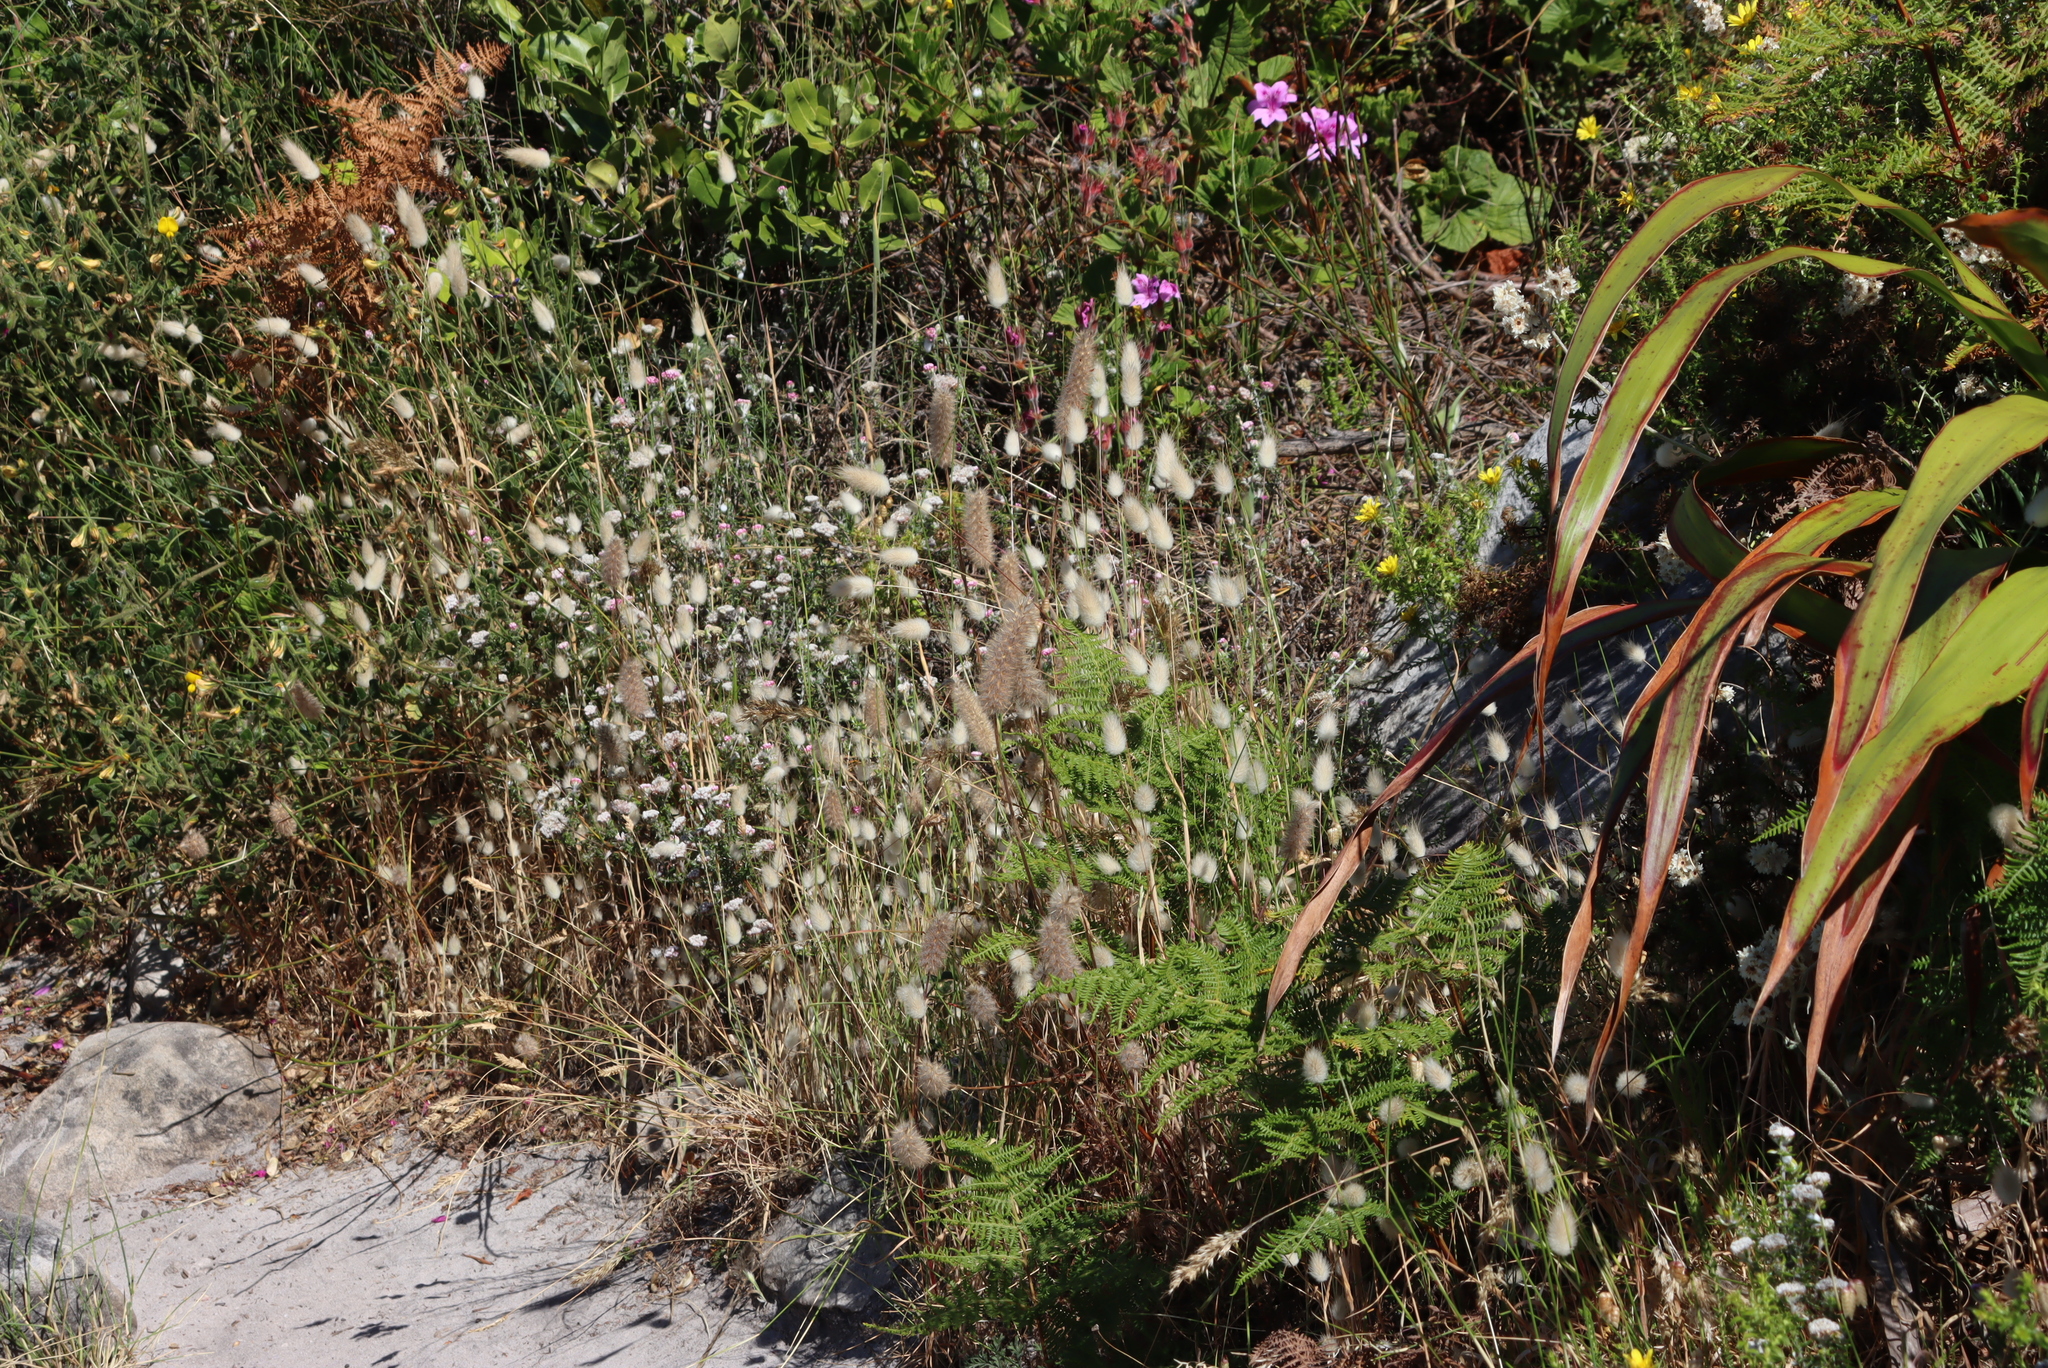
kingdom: Plantae
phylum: Tracheophyta
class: Magnoliopsida
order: Fabales
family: Fabaceae
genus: Trifolium
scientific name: Trifolium angustifolium
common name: Narrow clover
